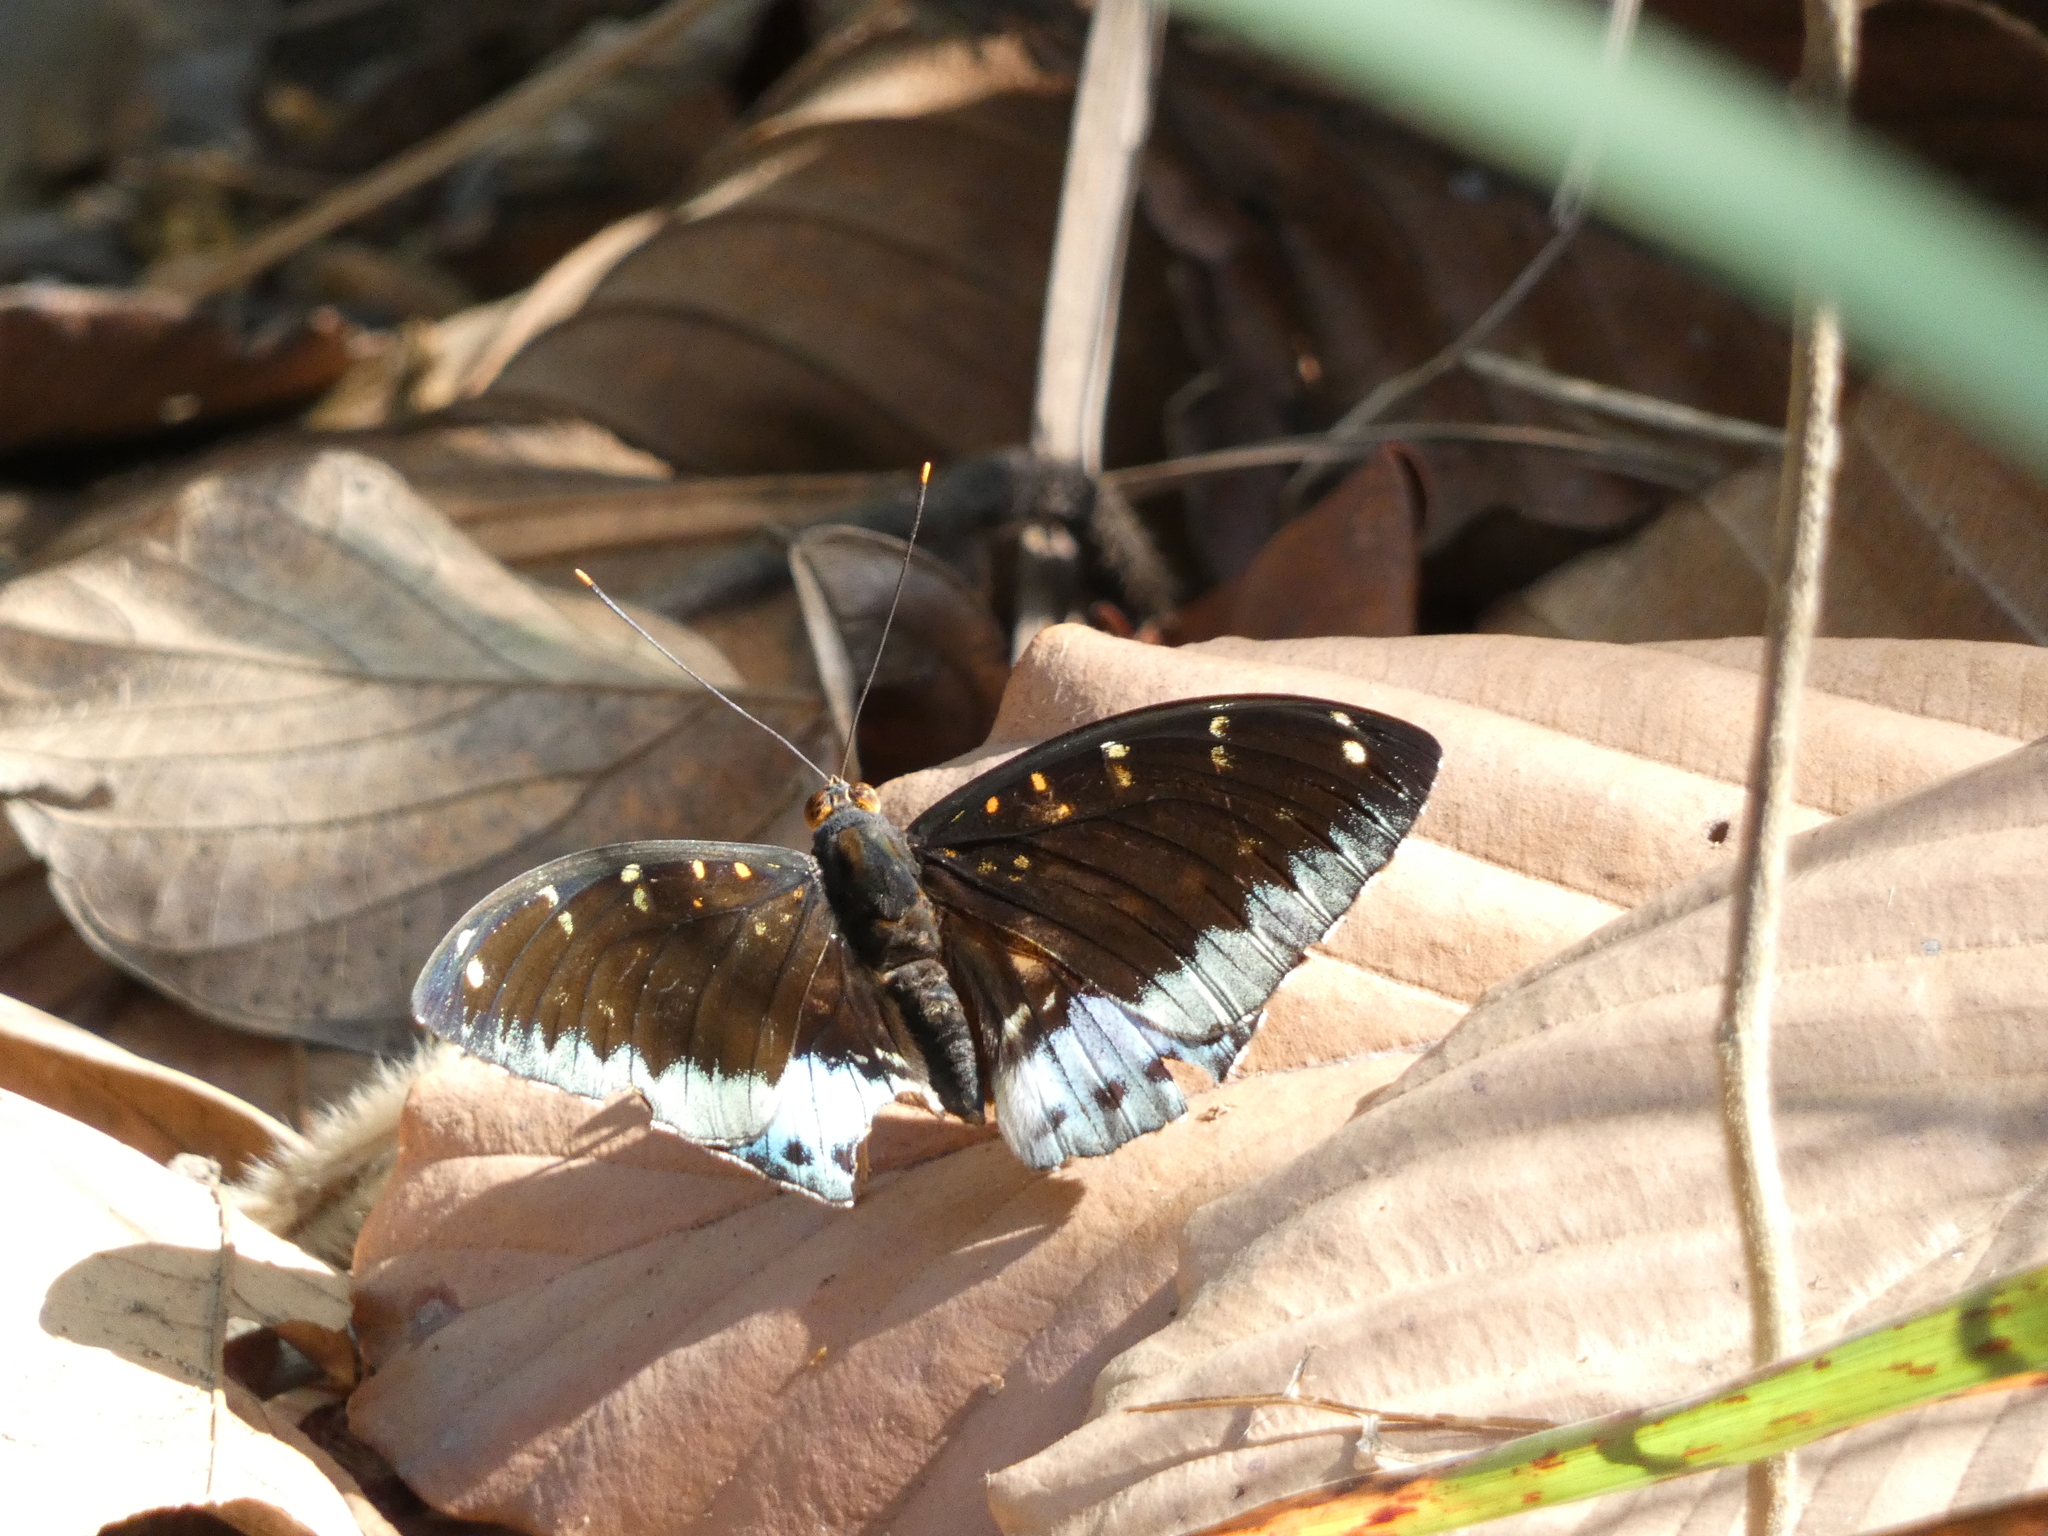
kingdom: Animalia
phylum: Arthropoda
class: Insecta
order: Lepidoptera
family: Nymphalidae
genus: Lexias
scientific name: Lexias pardalis
